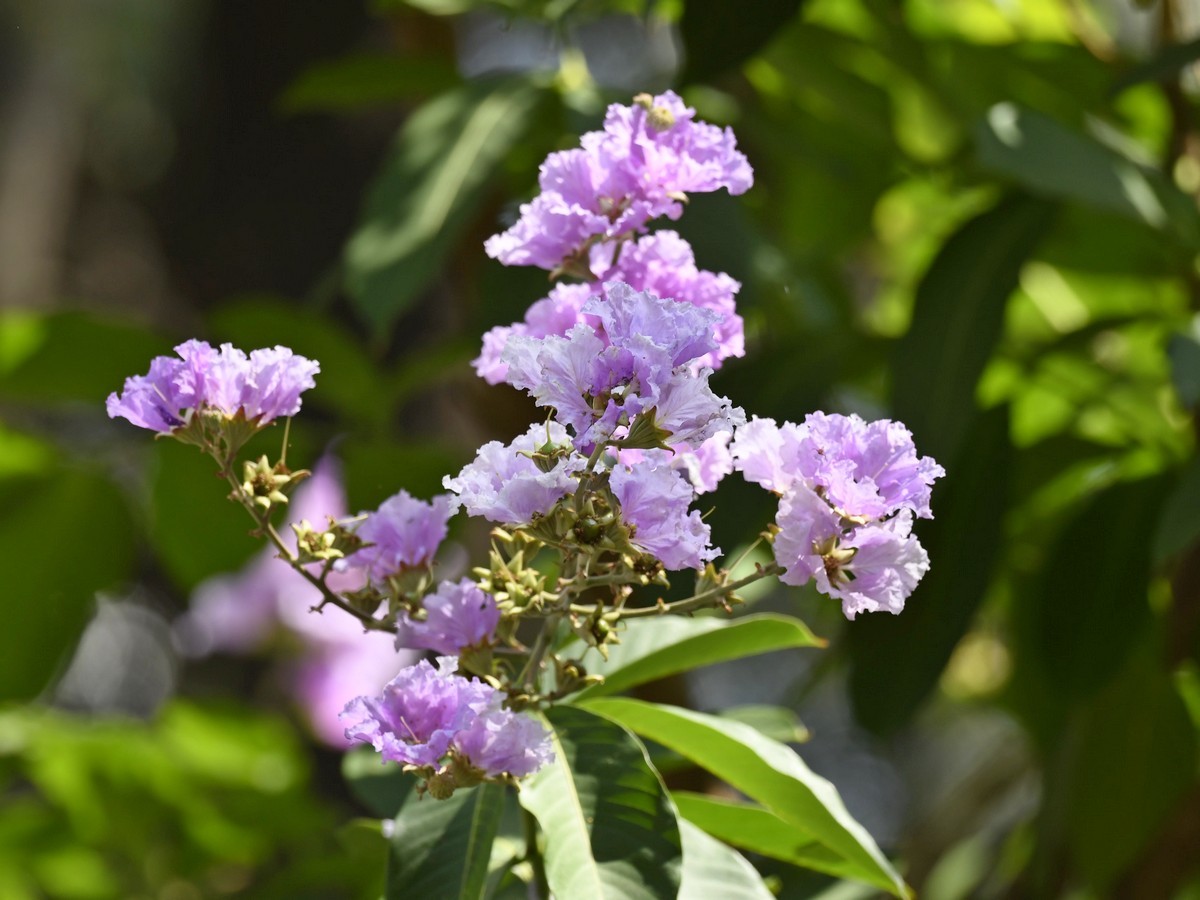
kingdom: Plantae
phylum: Tracheophyta
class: Magnoliopsida
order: Myrtales
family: Lythraceae
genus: Lagerstroemia
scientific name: Lagerstroemia speciosa
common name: Queen's crape-myrtle
